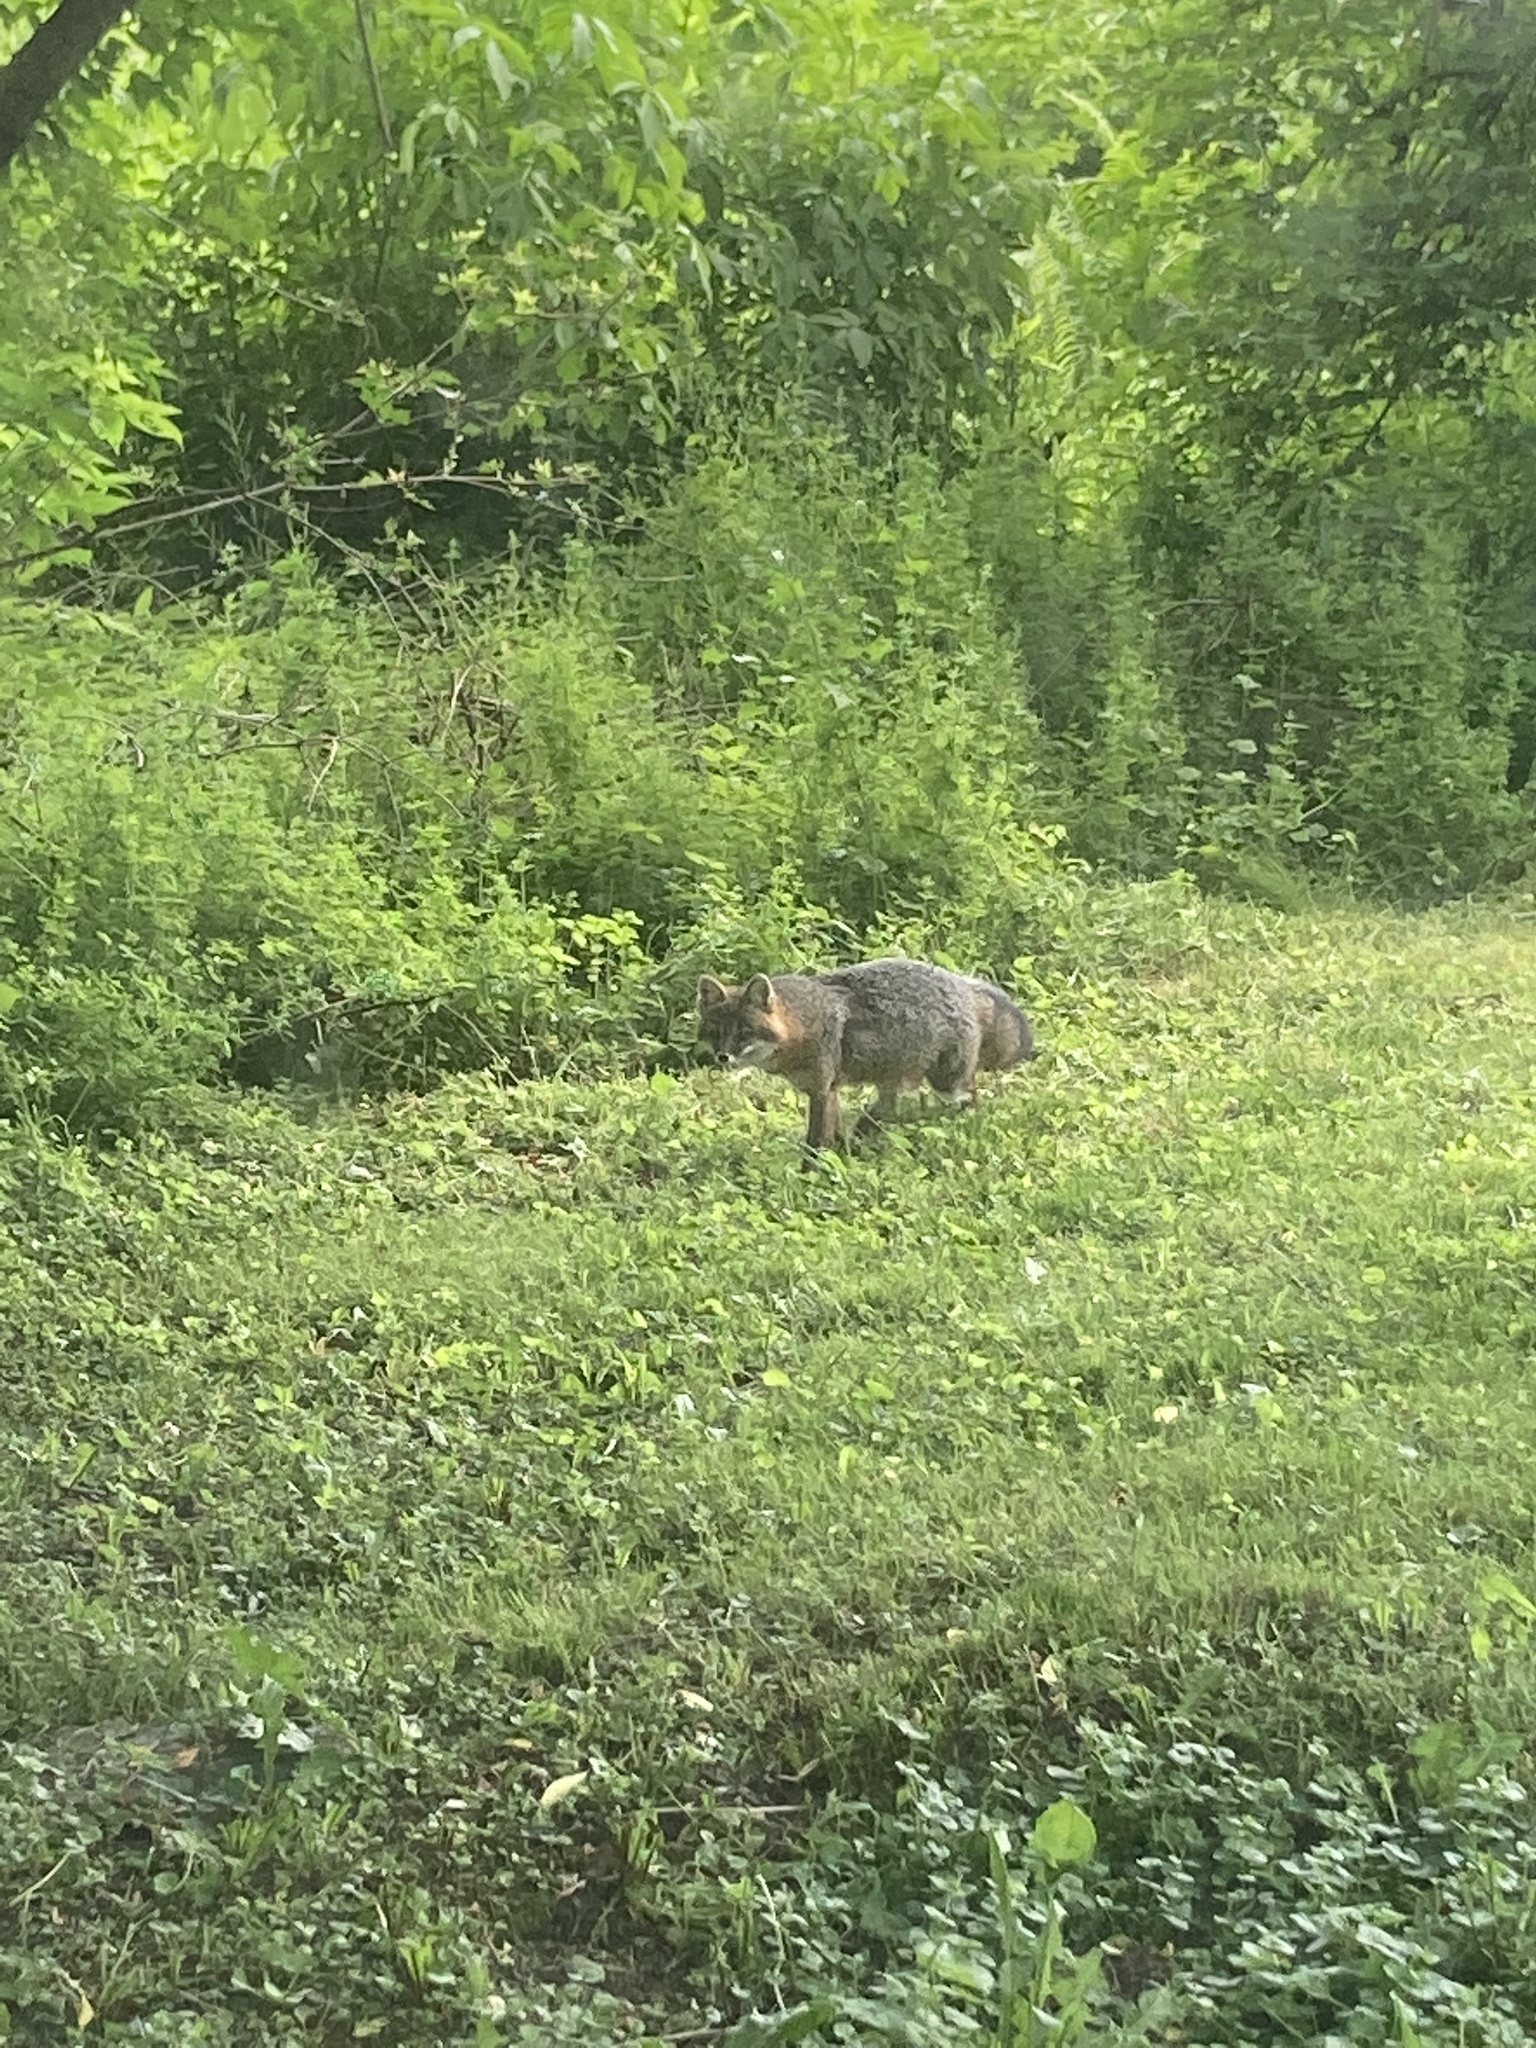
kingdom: Animalia
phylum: Chordata
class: Mammalia
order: Carnivora
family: Canidae
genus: Urocyon
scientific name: Urocyon cinereoargenteus
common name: Gray fox
